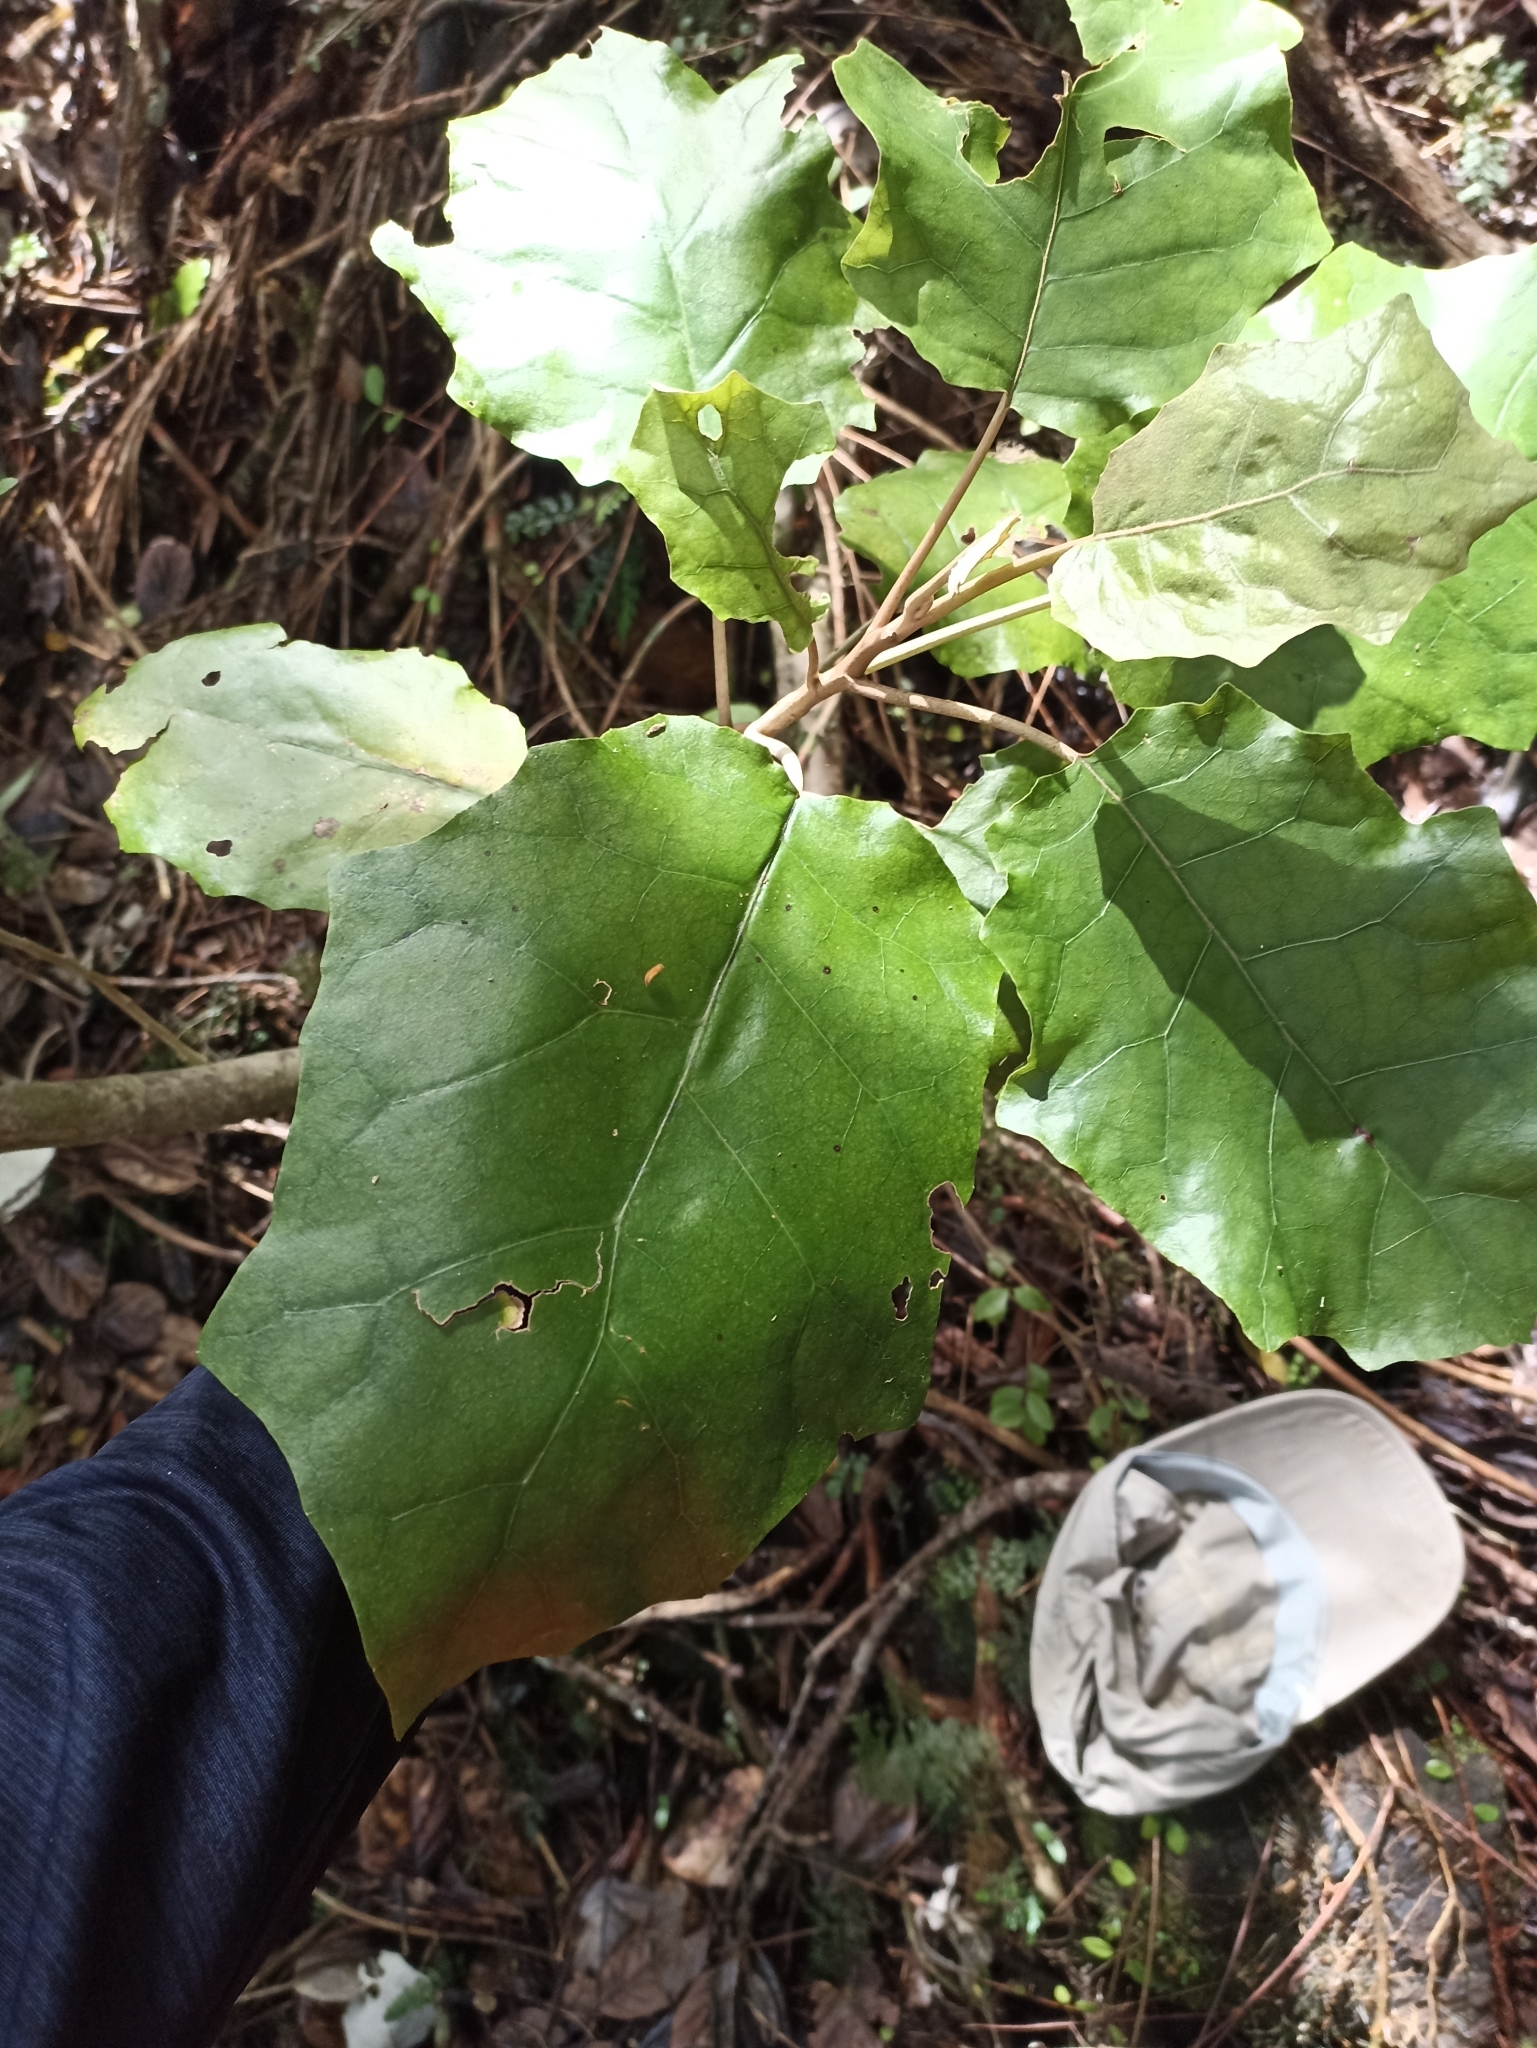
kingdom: Plantae
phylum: Tracheophyta
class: Magnoliopsida
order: Asterales
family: Asteraceae
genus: Brachyglottis
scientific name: Brachyglottis repanda
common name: Hedge ragwort
